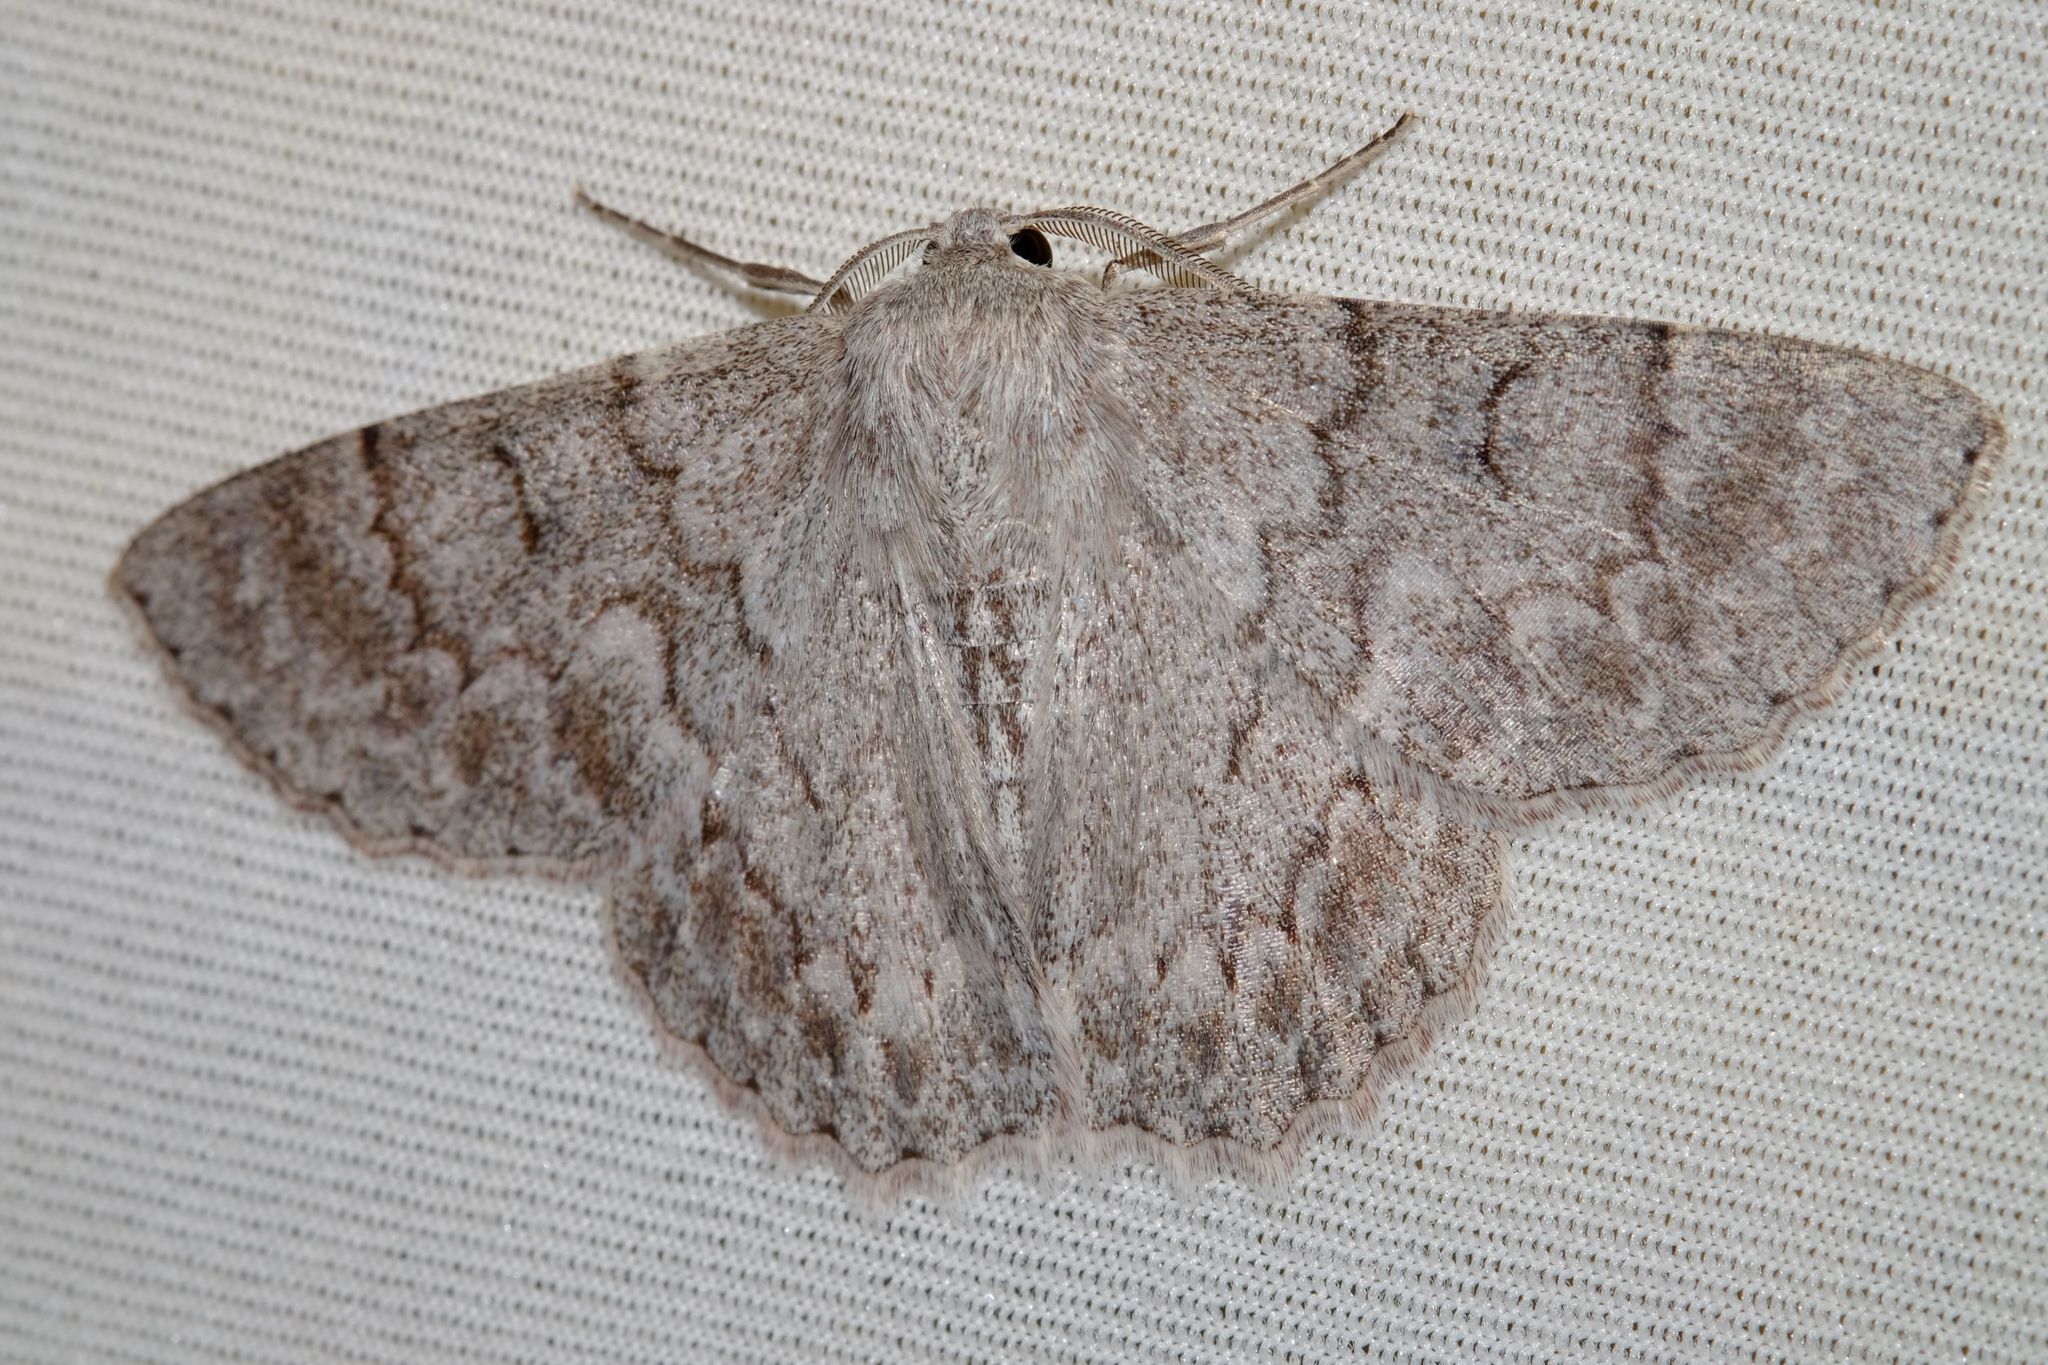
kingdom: Animalia
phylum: Arthropoda
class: Insecta
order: Lepidoptera
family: Geometridae
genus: Crypsiphona
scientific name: Crypsiphona ocultaria
